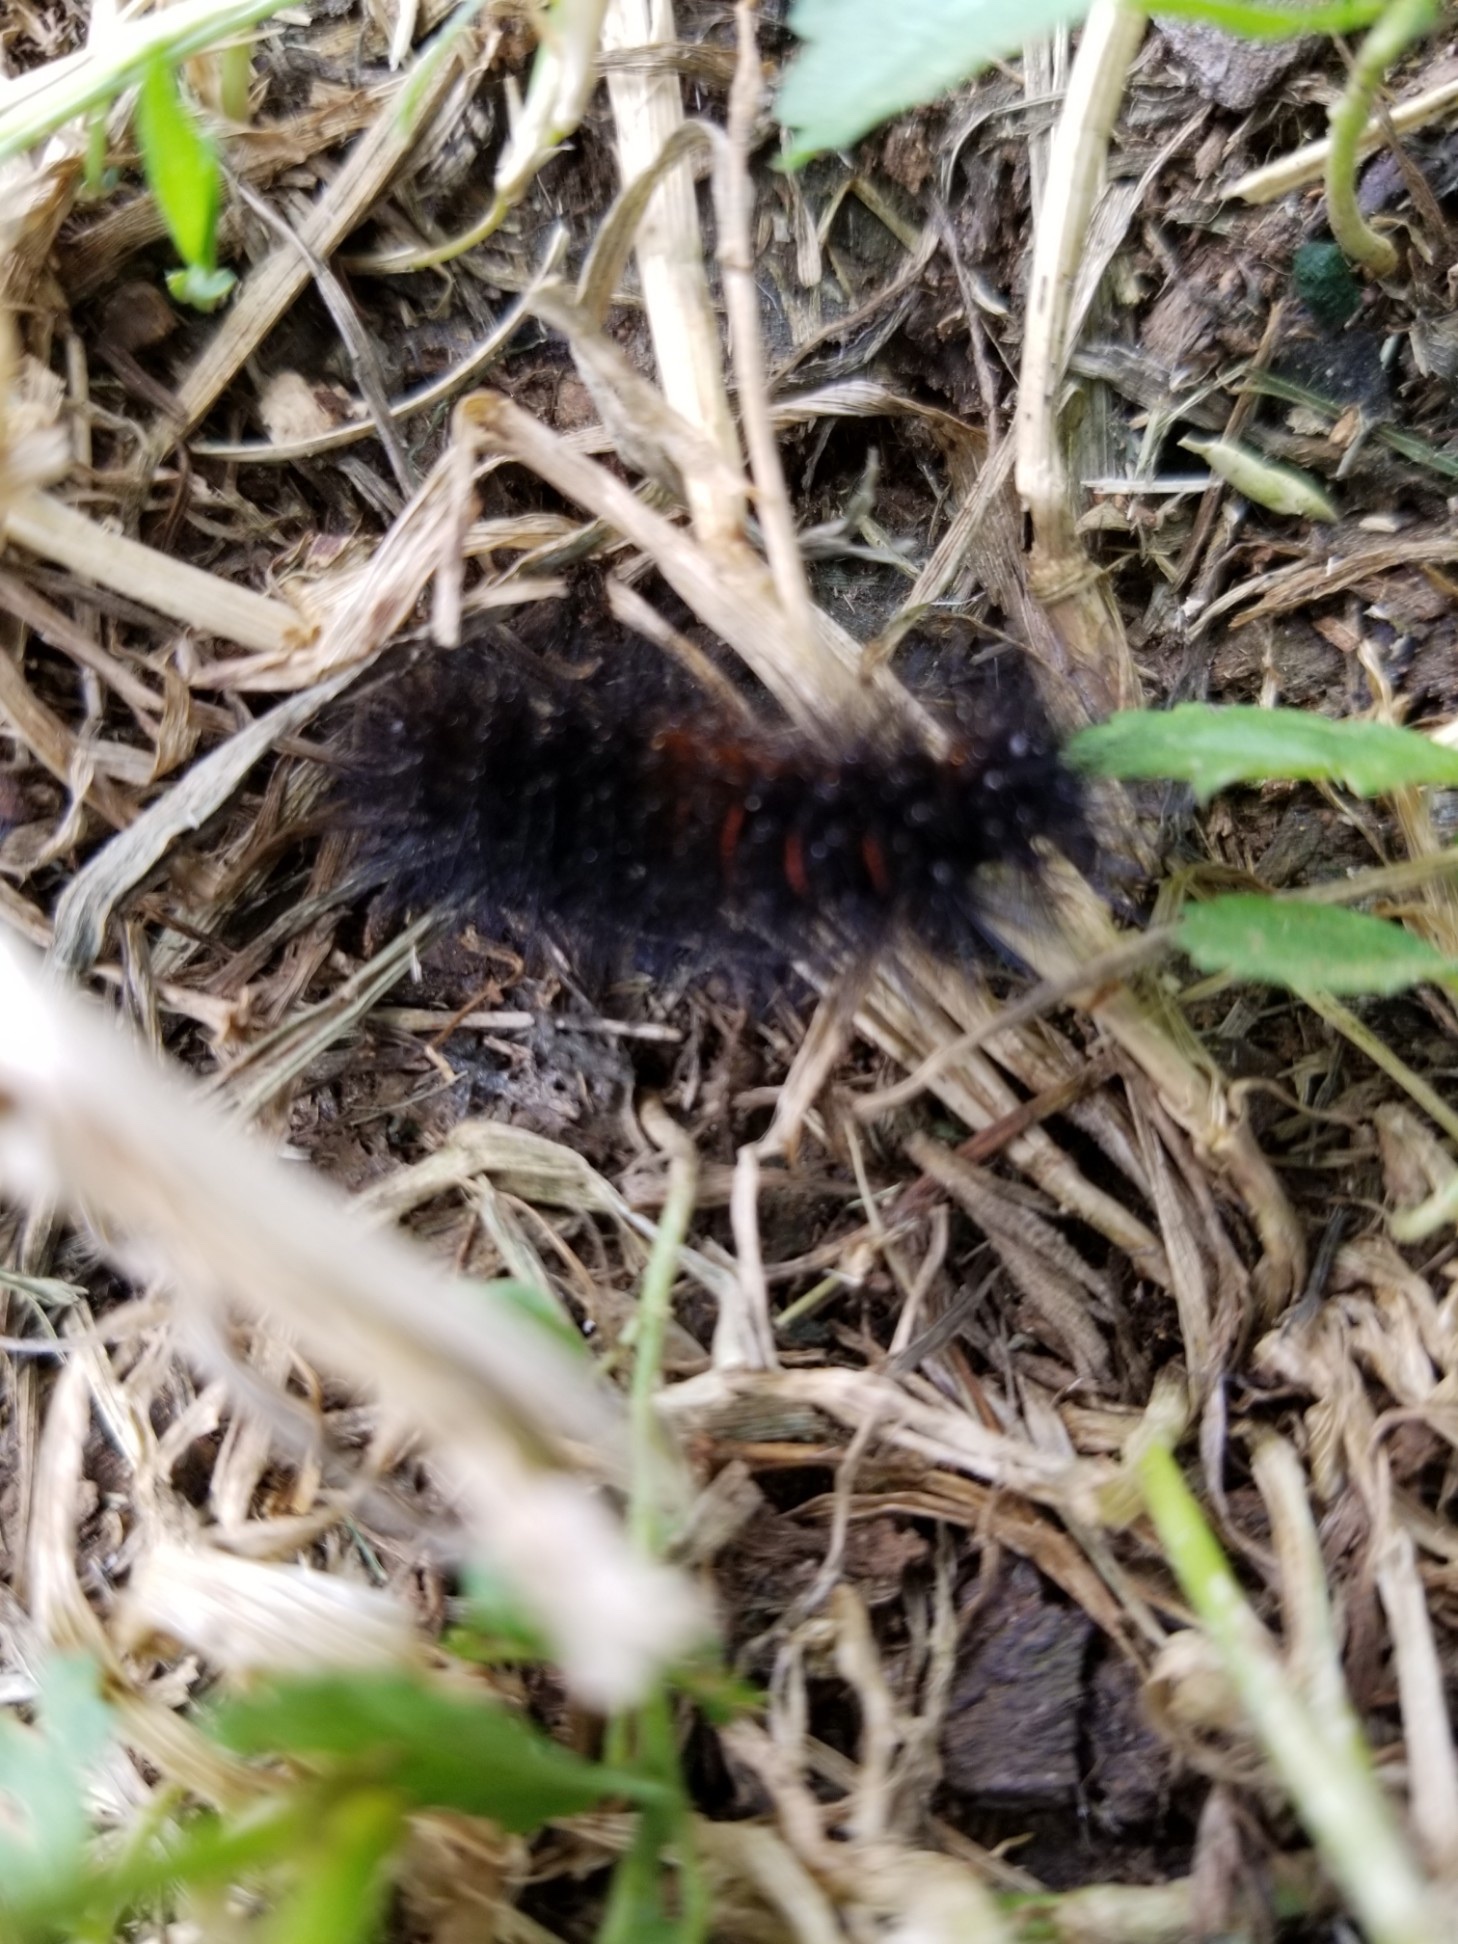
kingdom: Animalia
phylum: Arthropoda
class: Insecta
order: Lepidoptera
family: Erebidae
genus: Hypercompe
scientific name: Hypercompe scribonia
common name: Giant leopard moth
